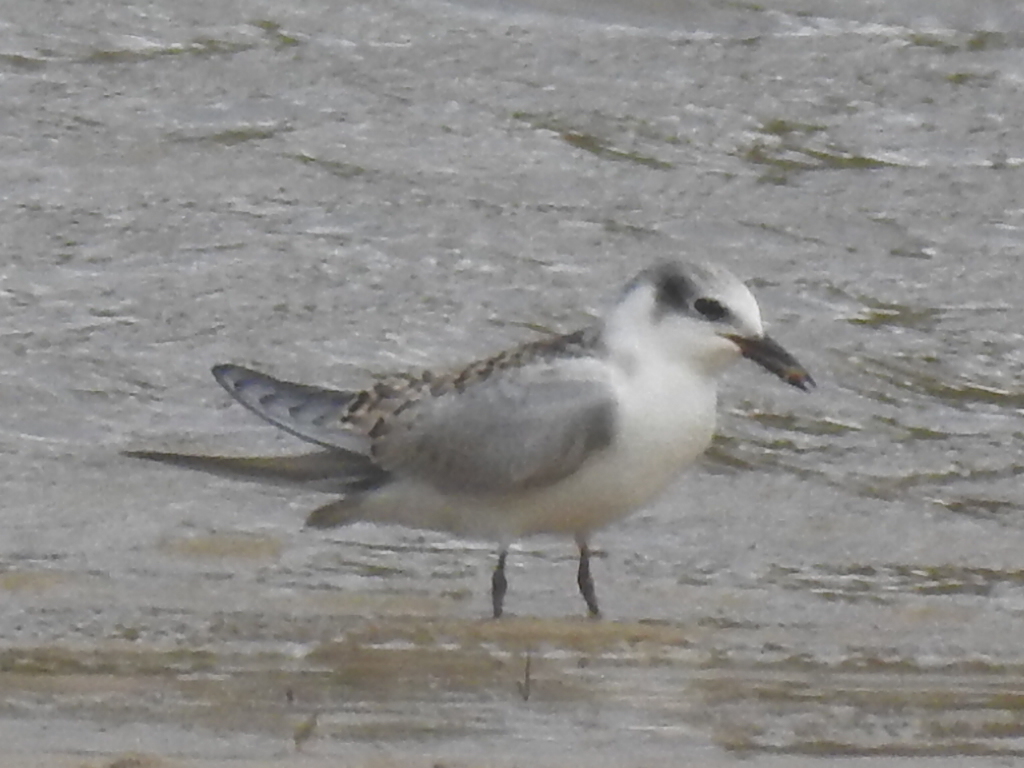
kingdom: Animalia
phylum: Chordata
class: Aves
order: Charadriiformes
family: Laridae
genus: Chlidonias
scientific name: Chlidonias hybrida
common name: Whiskered tern
